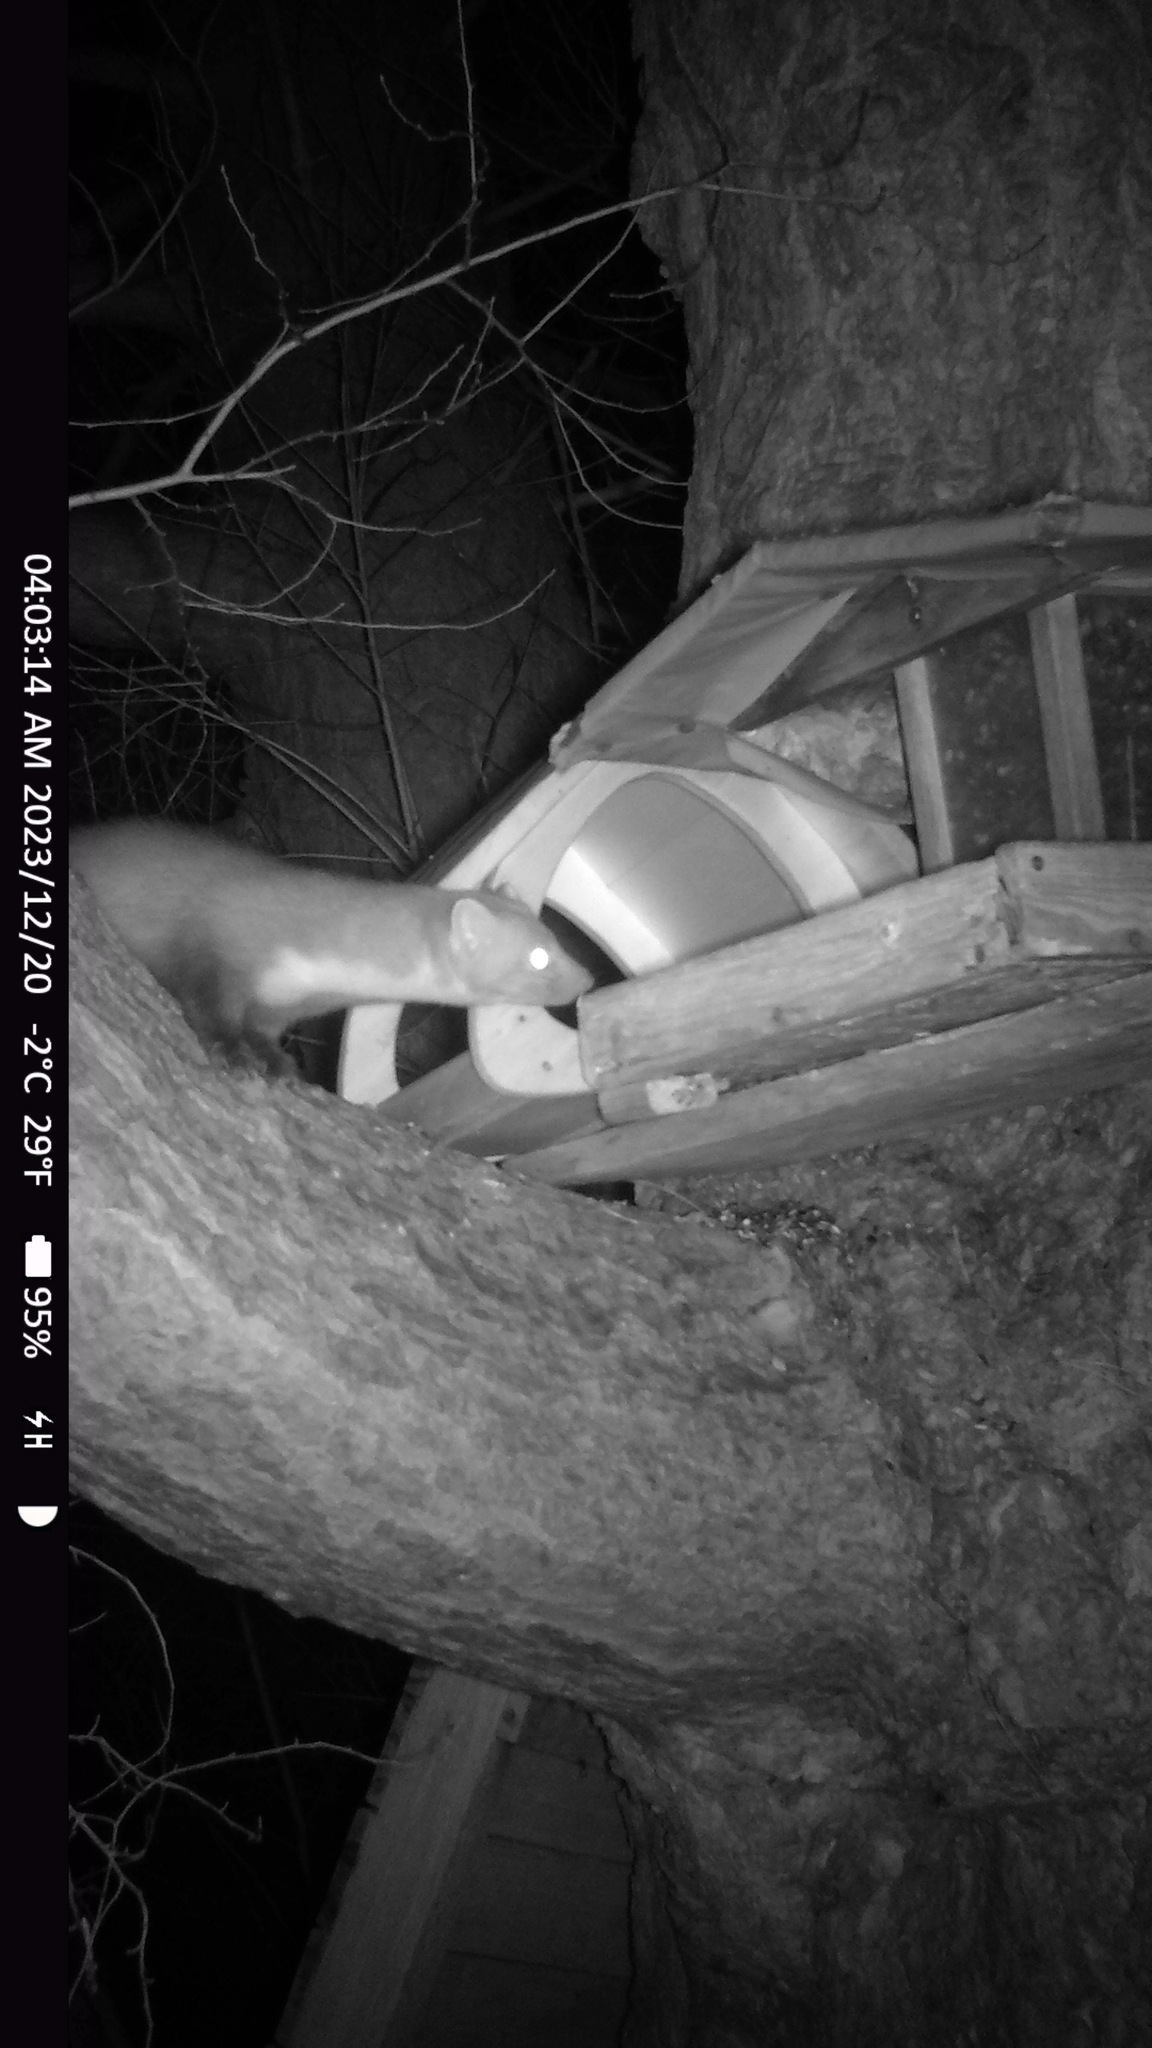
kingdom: Animalia
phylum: Chordata
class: Mammalia
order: Carnivora
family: Mustelidae
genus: Martes
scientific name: Martes foina
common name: Beech marten
